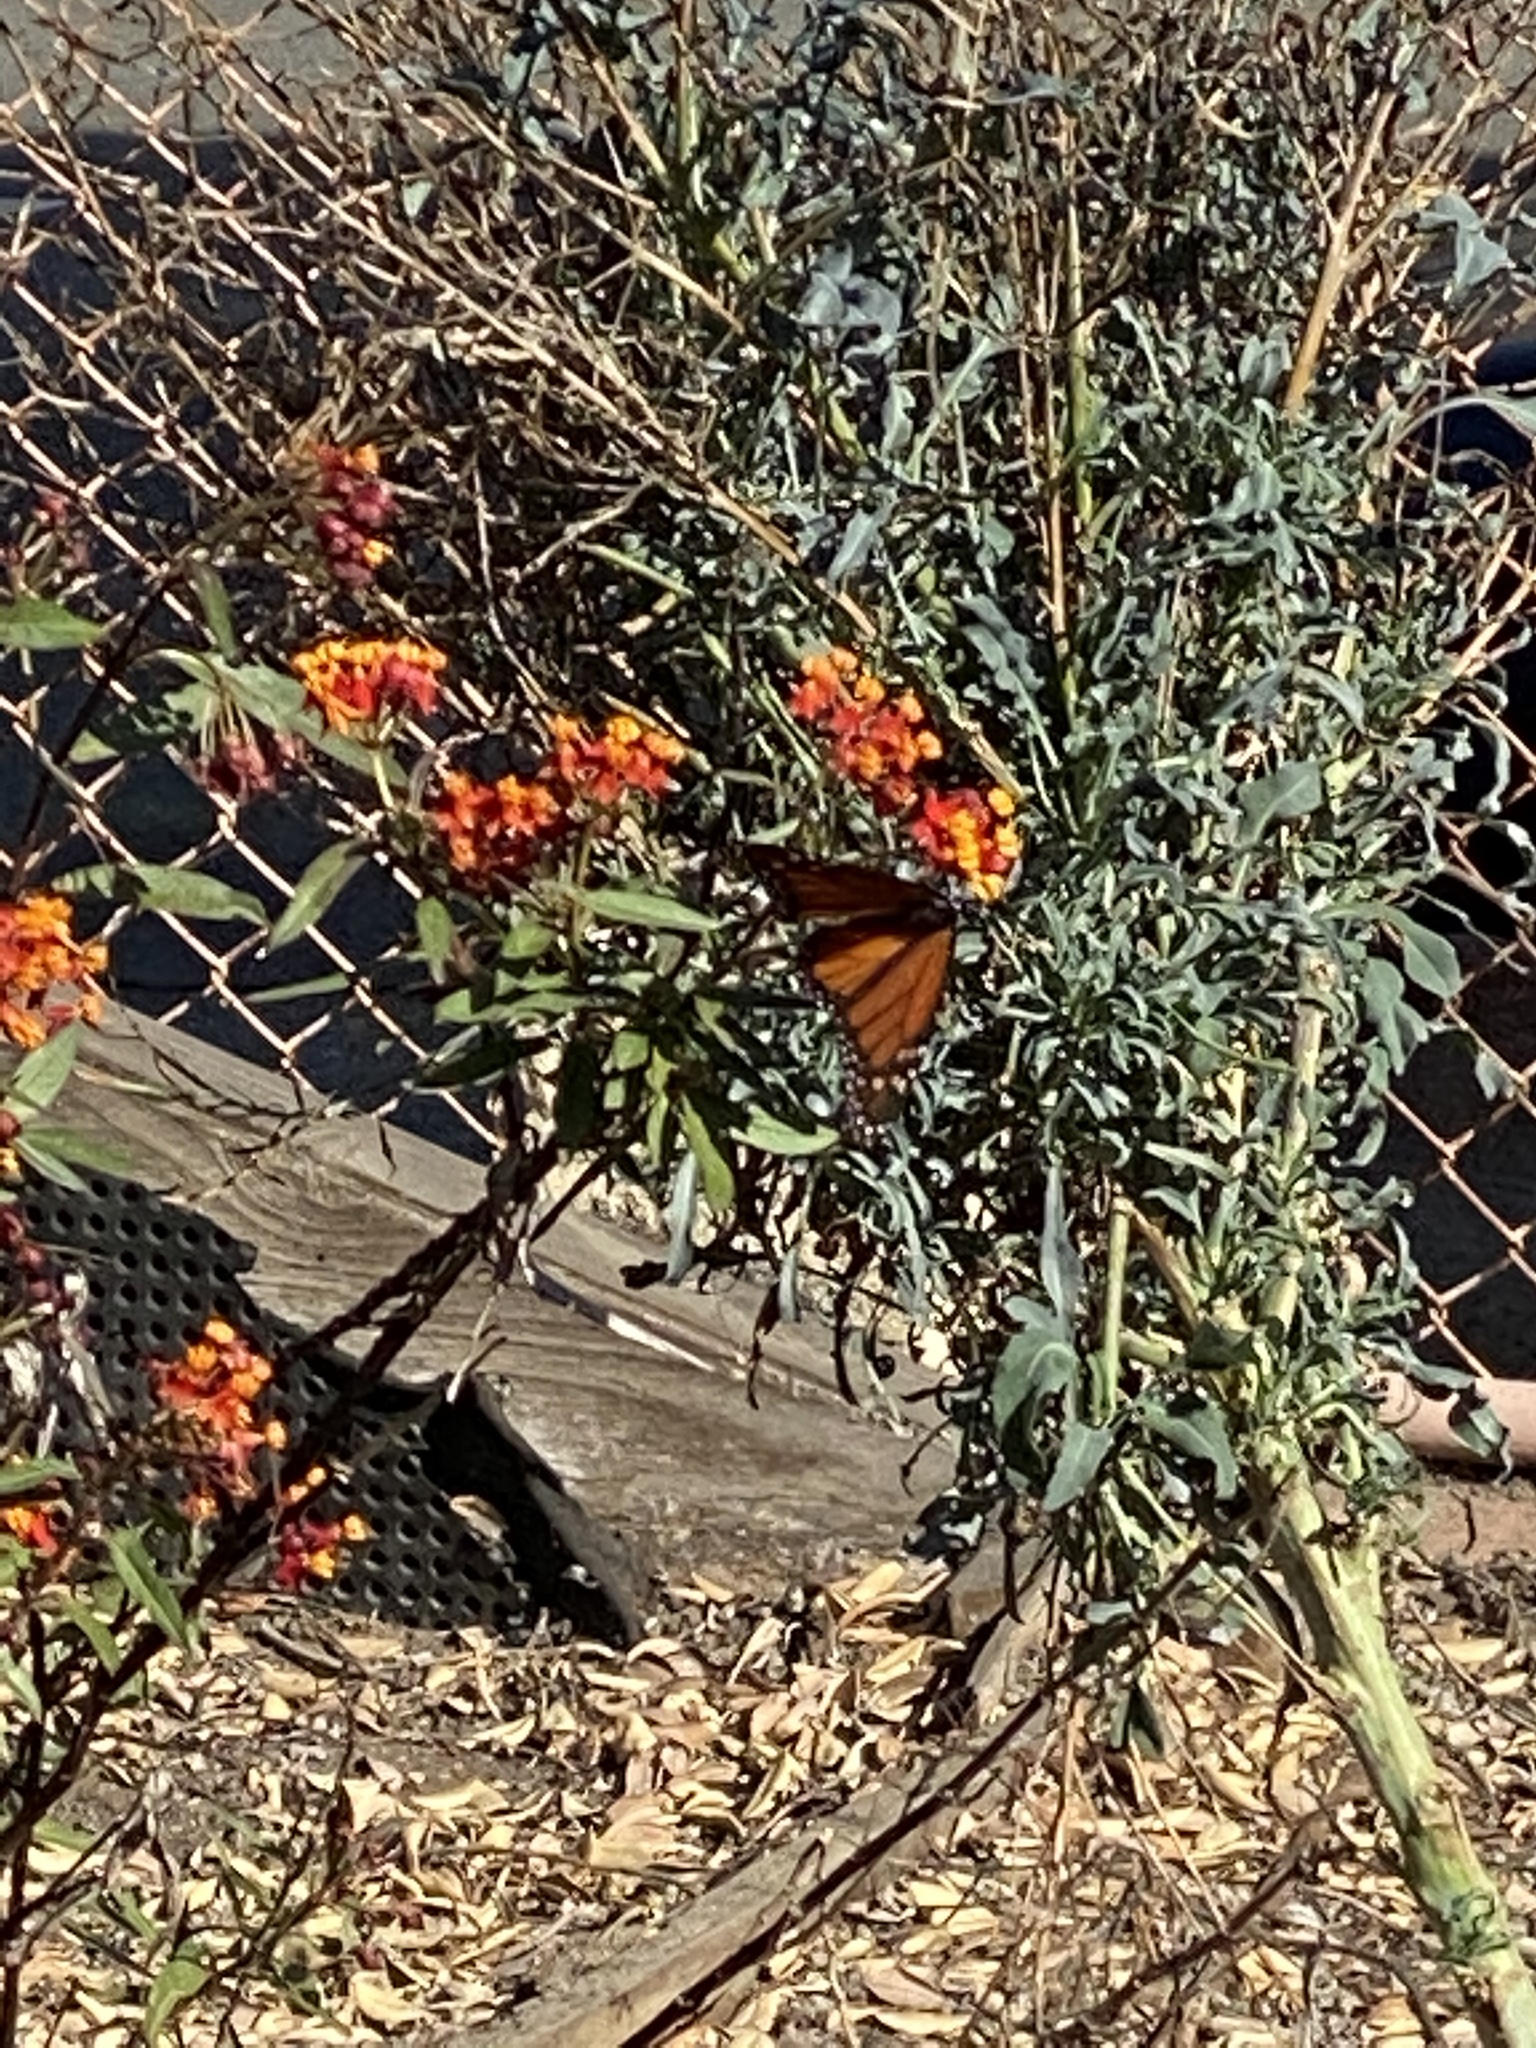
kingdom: Animalia
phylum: Arthropoda
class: Insecta
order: Lepidoptera
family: Nymphalidae
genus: Danaus
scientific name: Danaus plexippus
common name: Monarch
